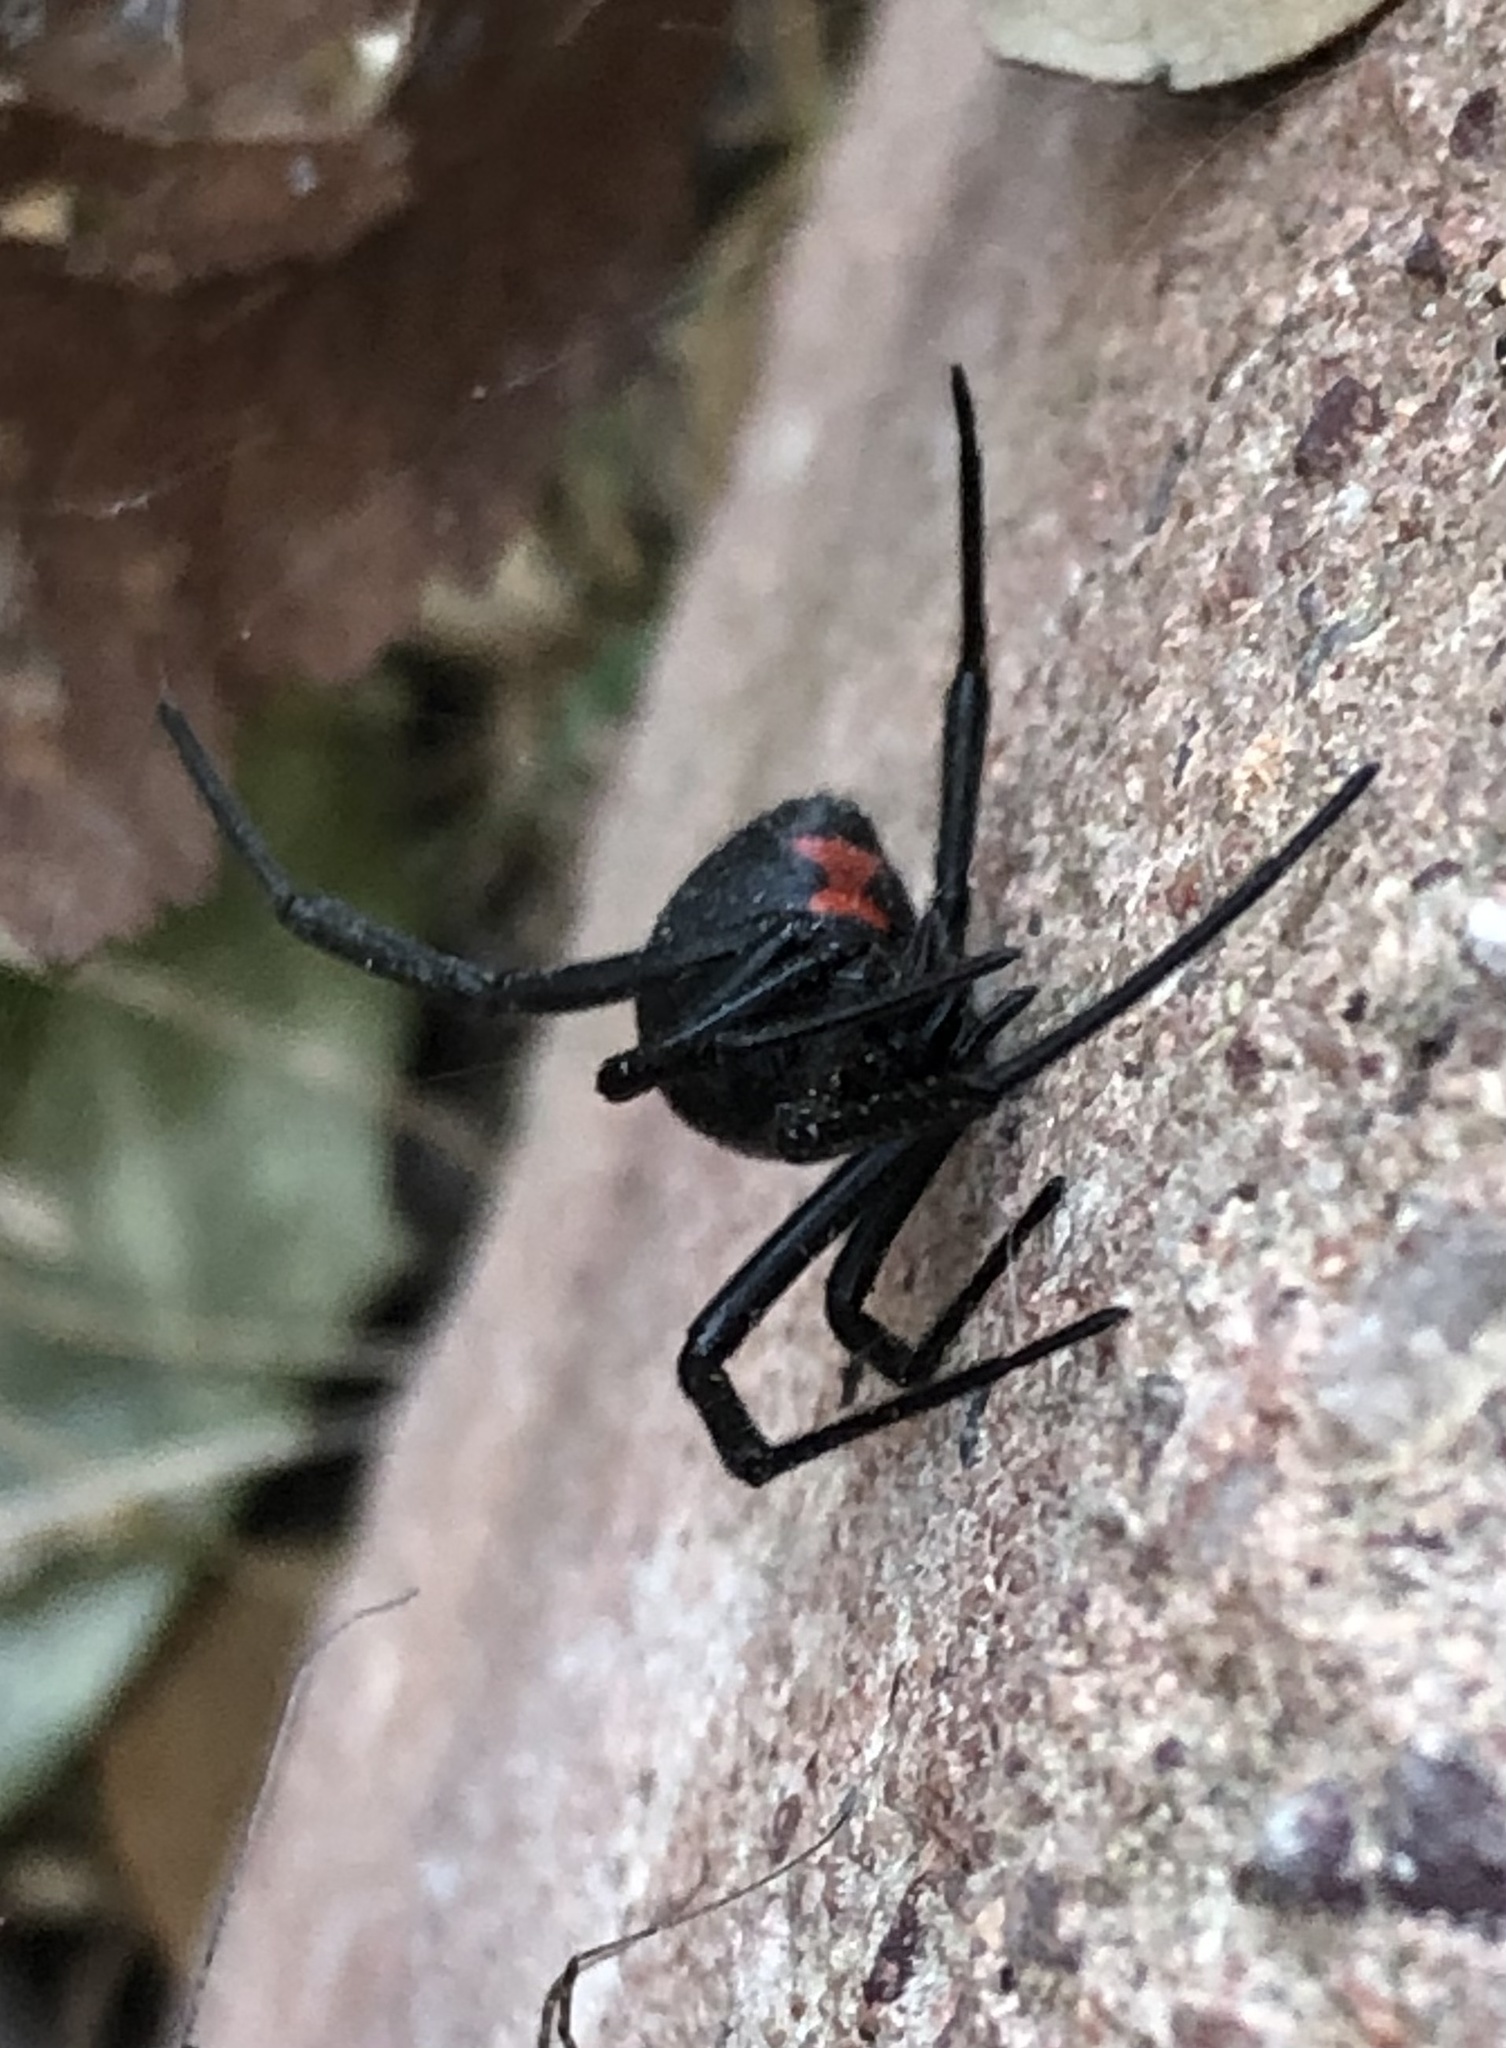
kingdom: Animalia
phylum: Arthropoda
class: Arachnida
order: Araneae
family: Theridiidae
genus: Latrodectus
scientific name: Latrodectus mactans
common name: Cobweb spiders
